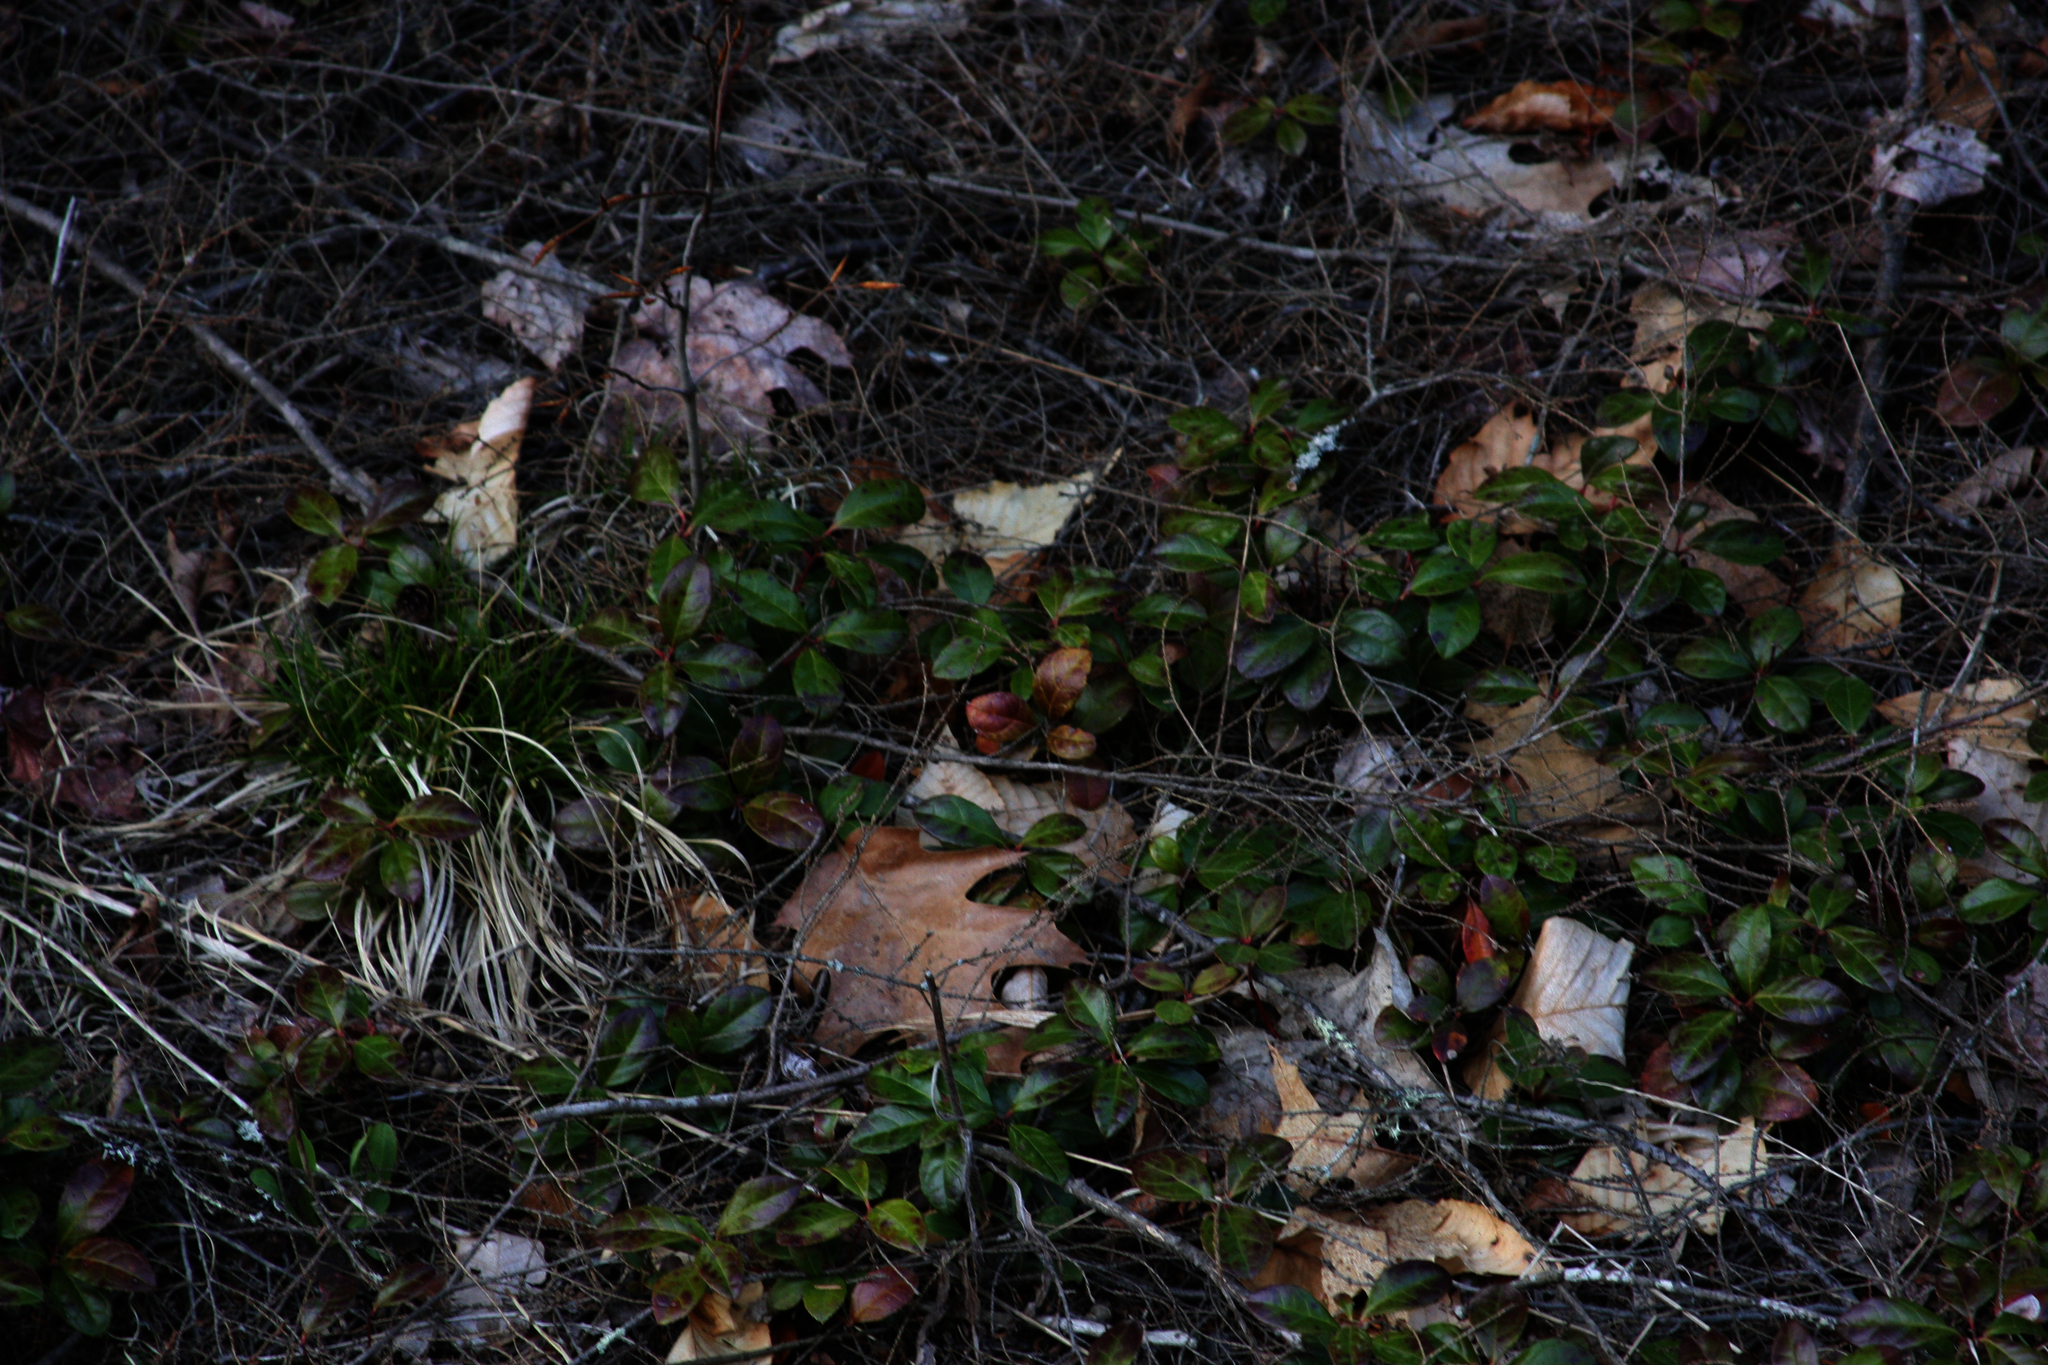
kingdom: Plantae
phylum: Tracheophyta
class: Magnoliopsida
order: Ericales
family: Ericaceae
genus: Gaultheria
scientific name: Gaultheria procumbens
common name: Checkerberry
